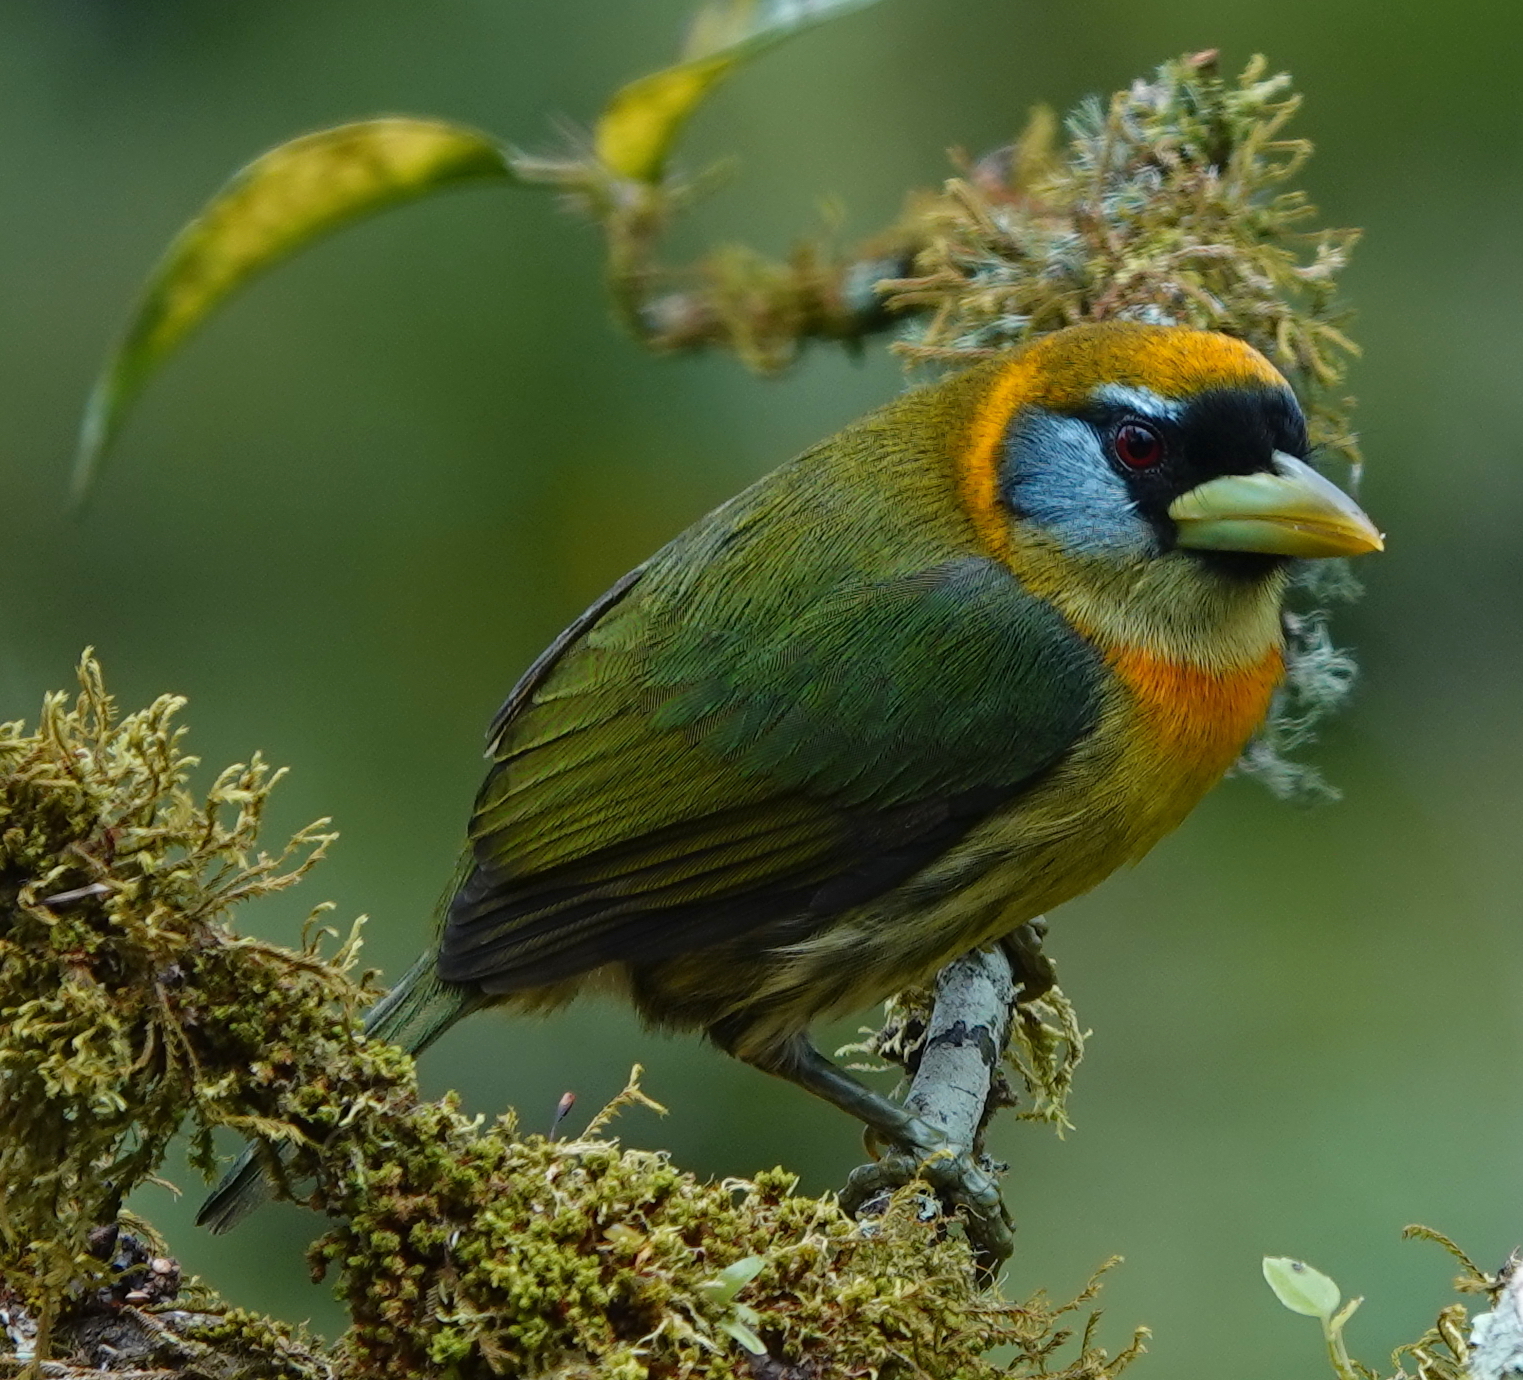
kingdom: Animalia
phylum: Chordata
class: Aves
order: Piciformes
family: Capitonidae
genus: Eubucco
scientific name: Eubucco bourcierii
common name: Red-headed barbet
